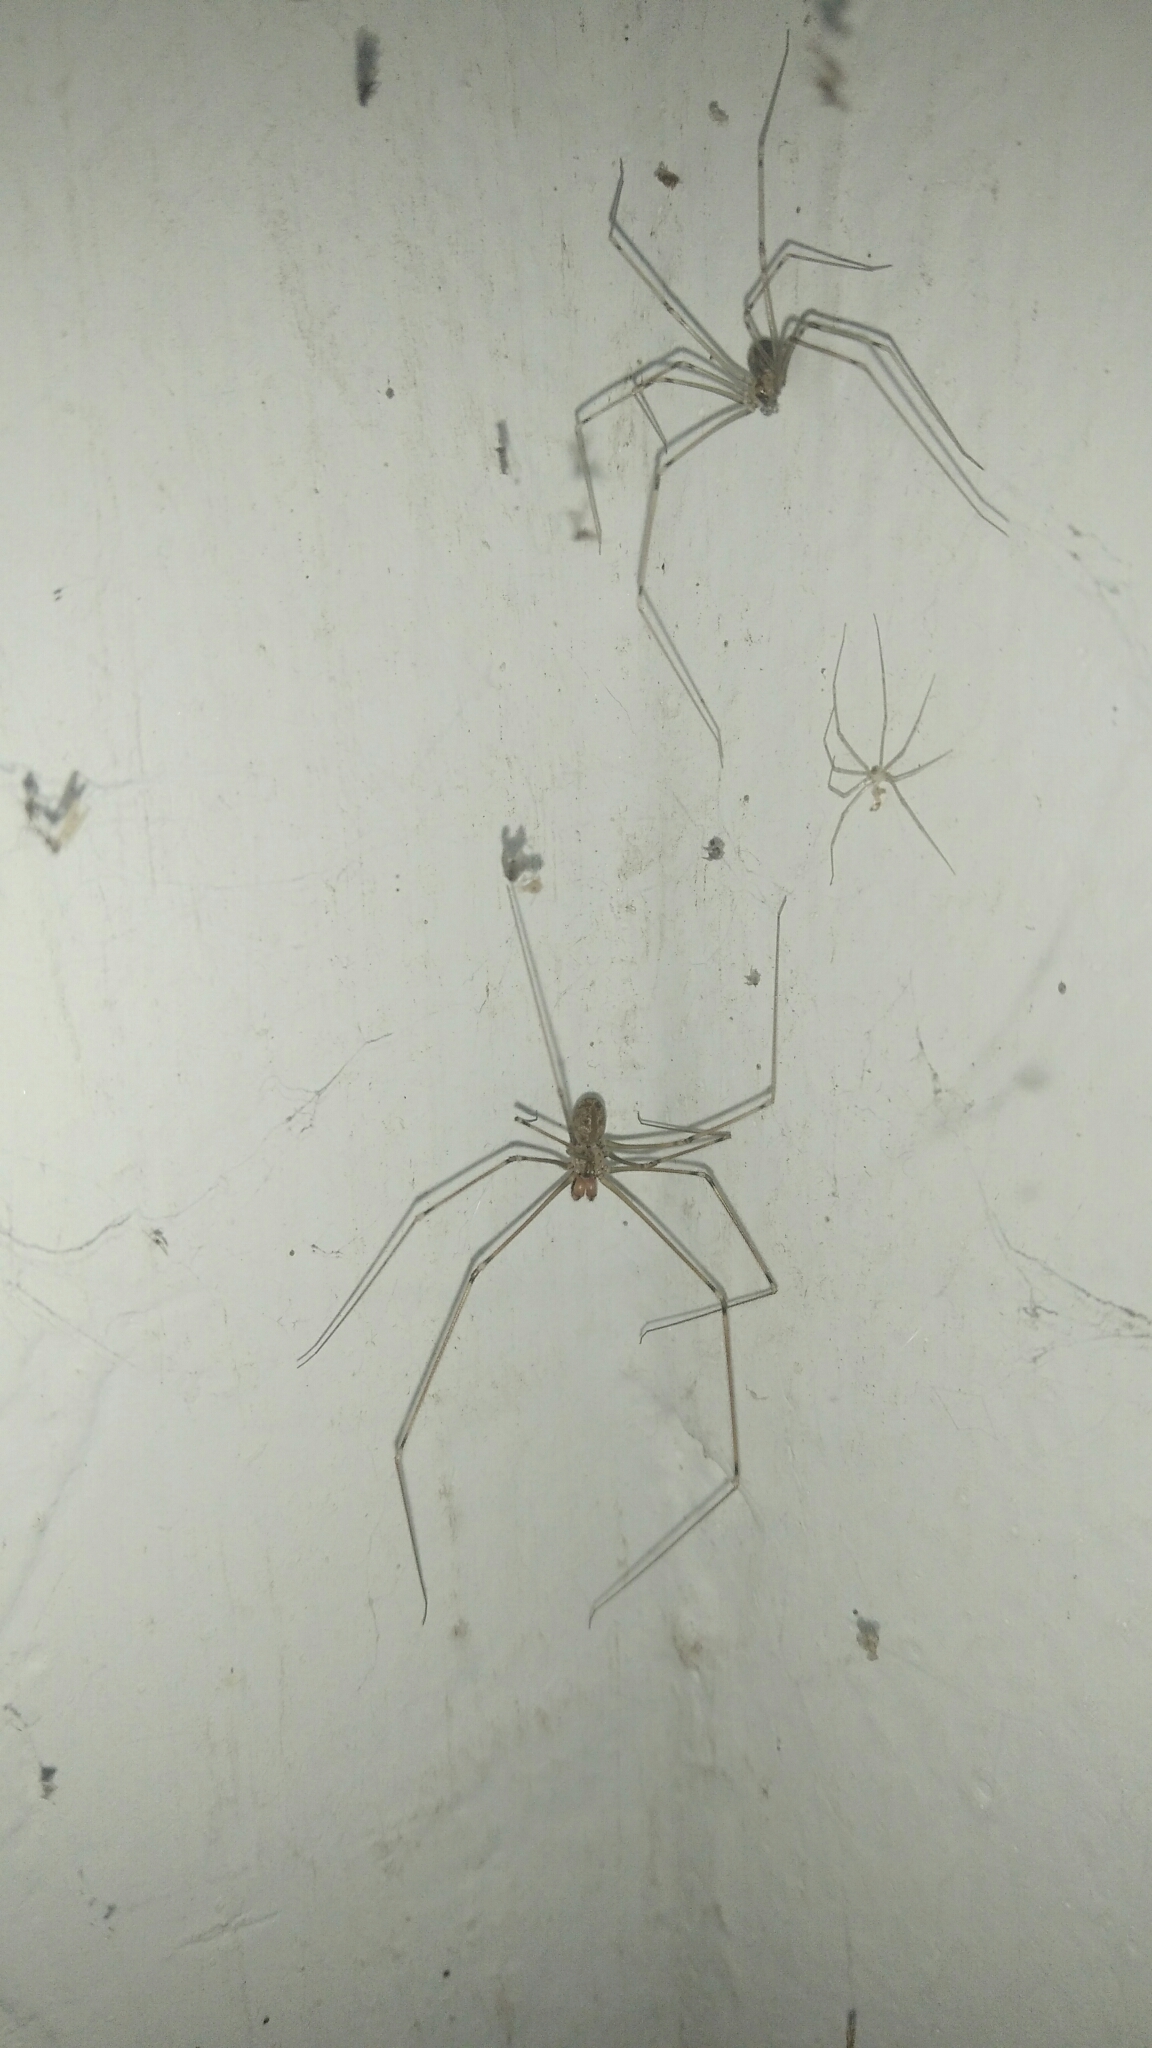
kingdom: Animalia
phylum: Arthropoda
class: Arachnida
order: Araneae
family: Pholcidae
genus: Physocyclus
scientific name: Physocyclus globosus
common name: Cellar spiders
